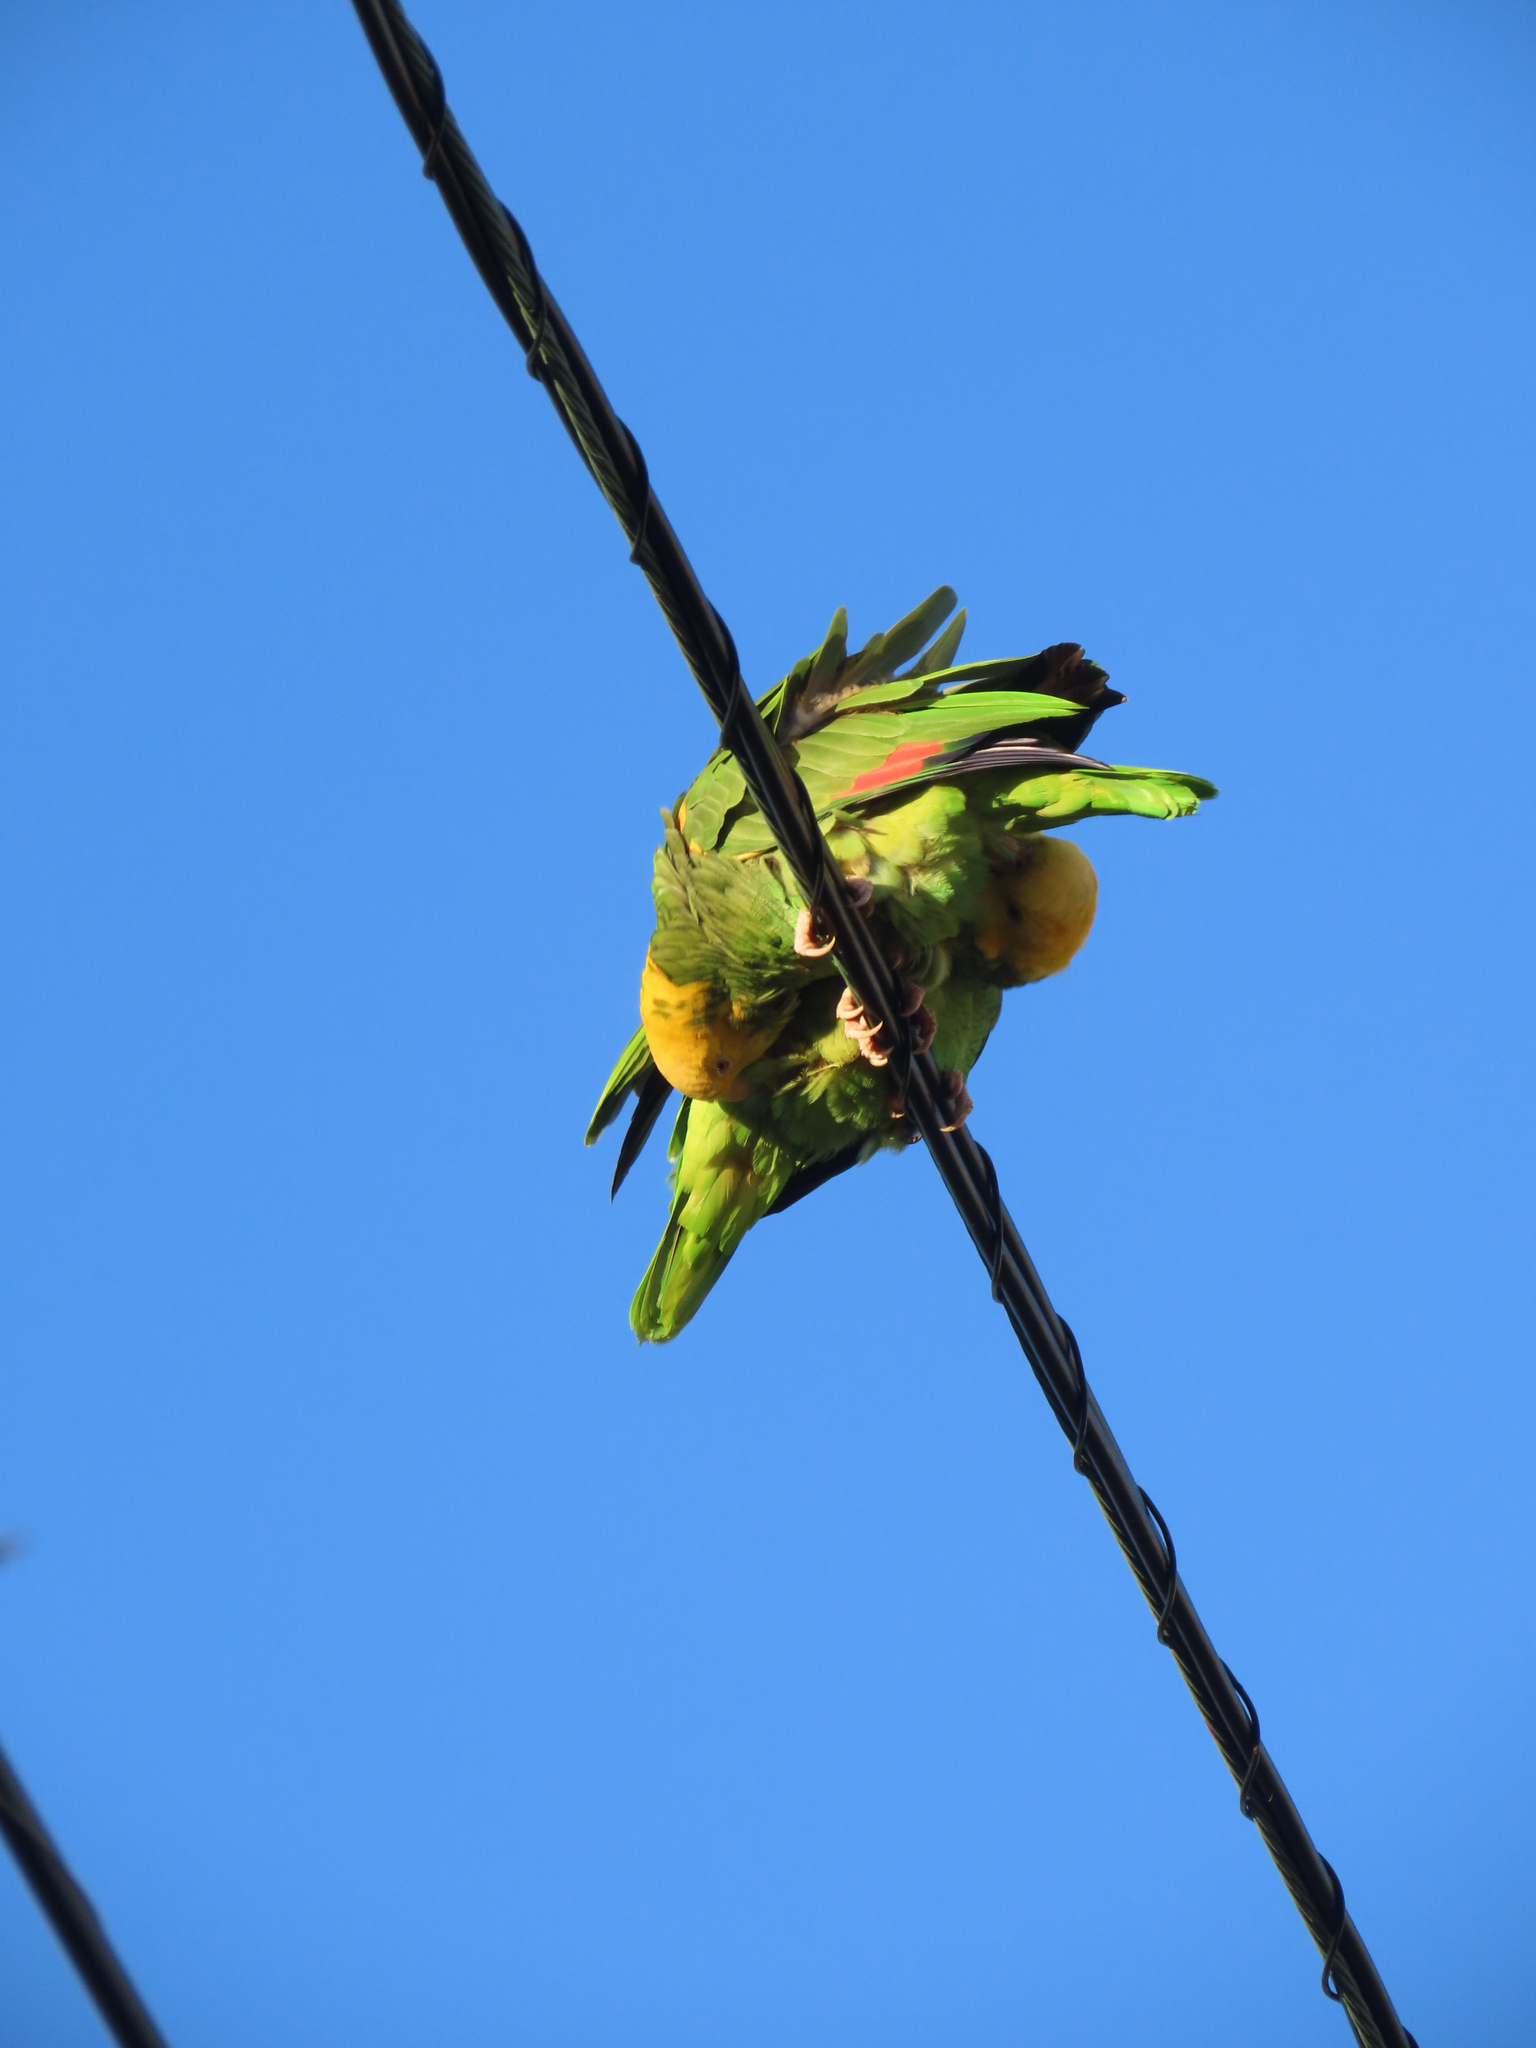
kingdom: Animalia
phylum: Chordata
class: Aves
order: Psittaciformes
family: Psittacidae
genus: Amazona
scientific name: Amazona oratrix
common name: Yellow-headed amazon
